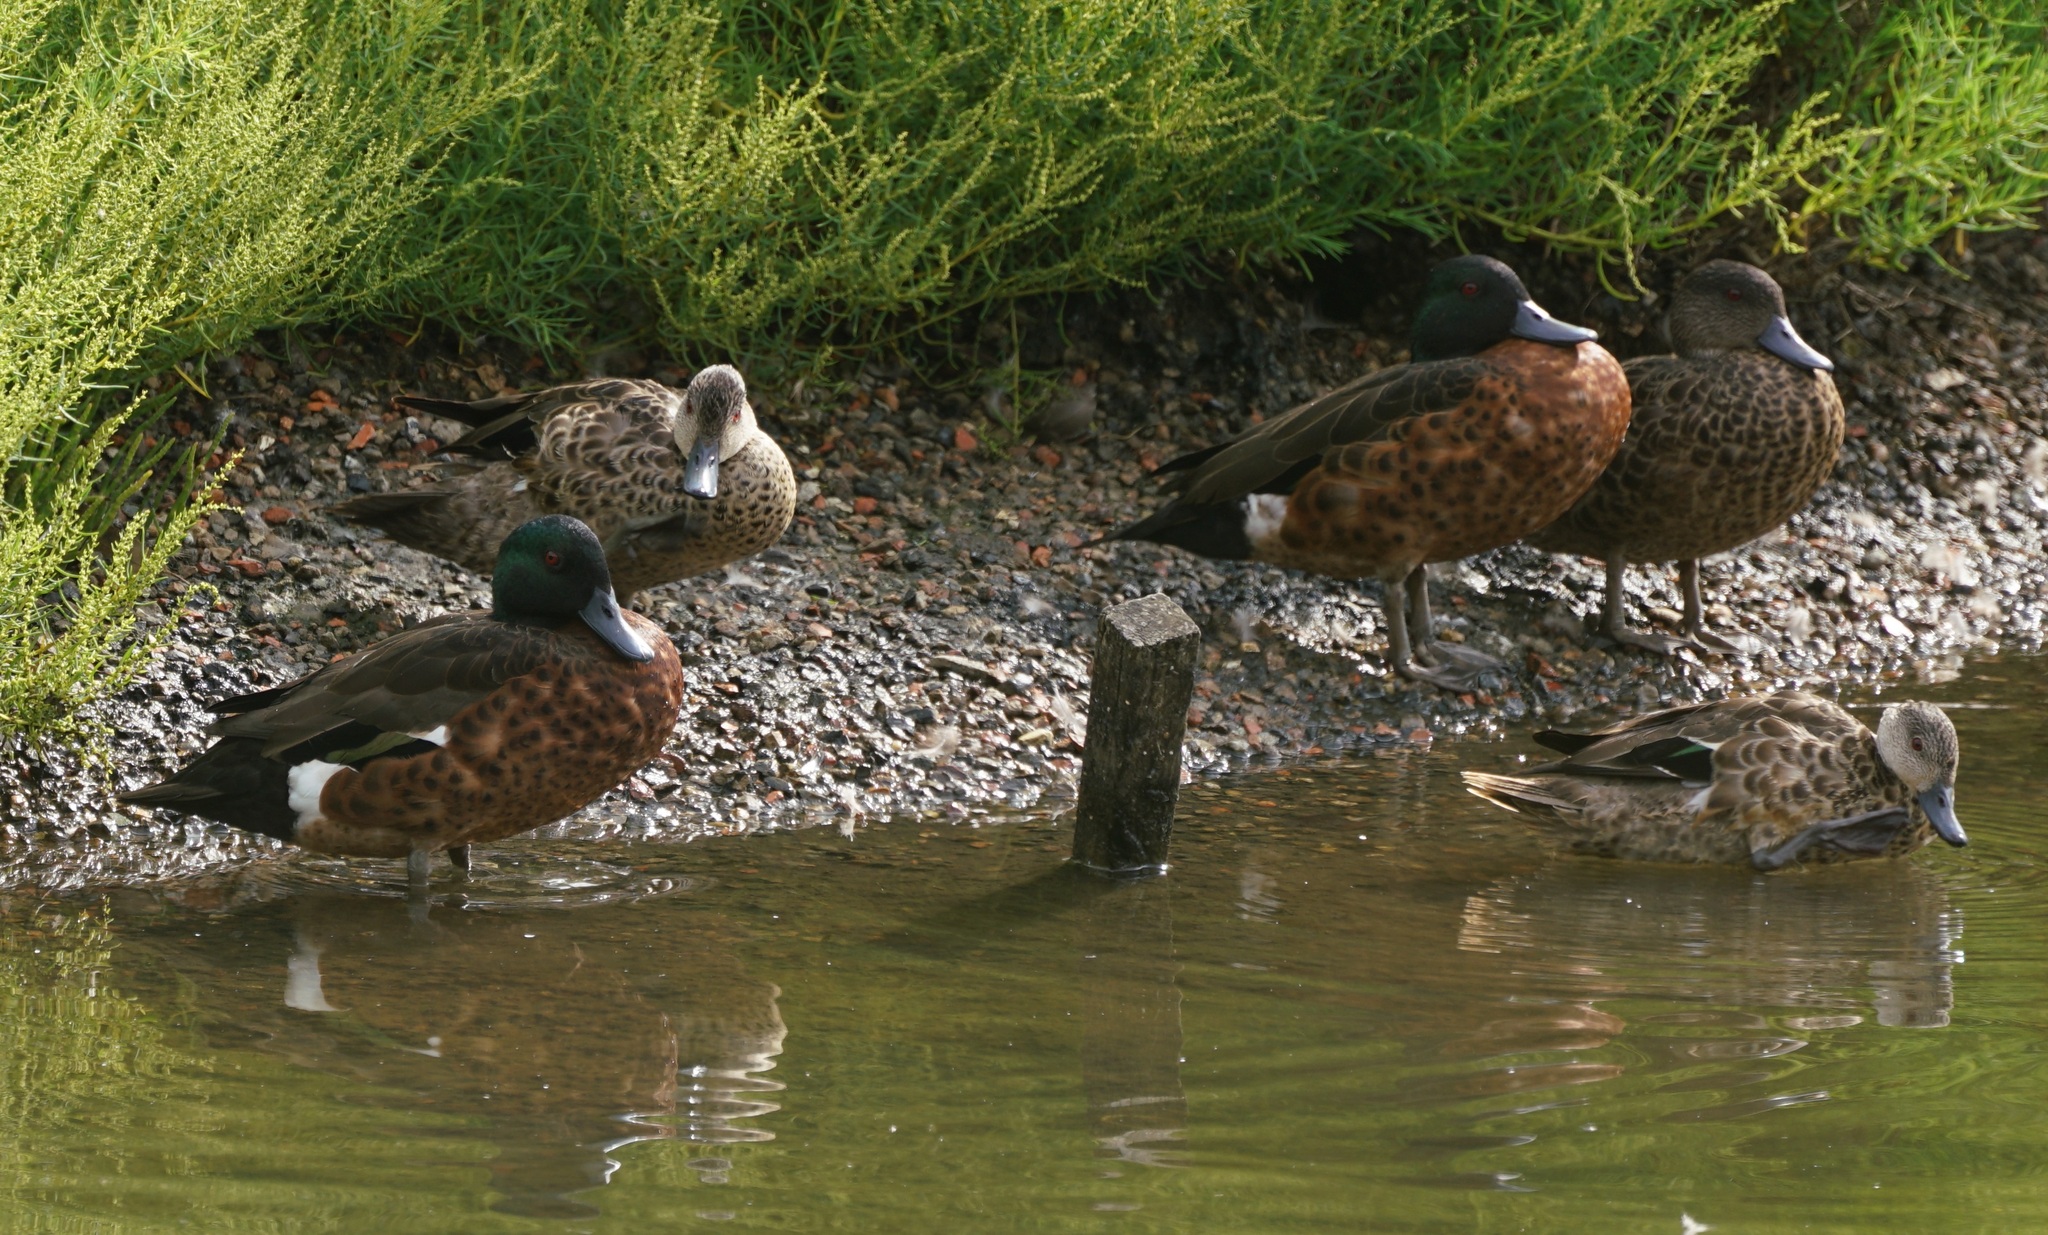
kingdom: Animalia
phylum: Chordata
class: Aves
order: Anseriformes
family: Anatidae
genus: Anas
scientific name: Anas castanea
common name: Chestnut teal
